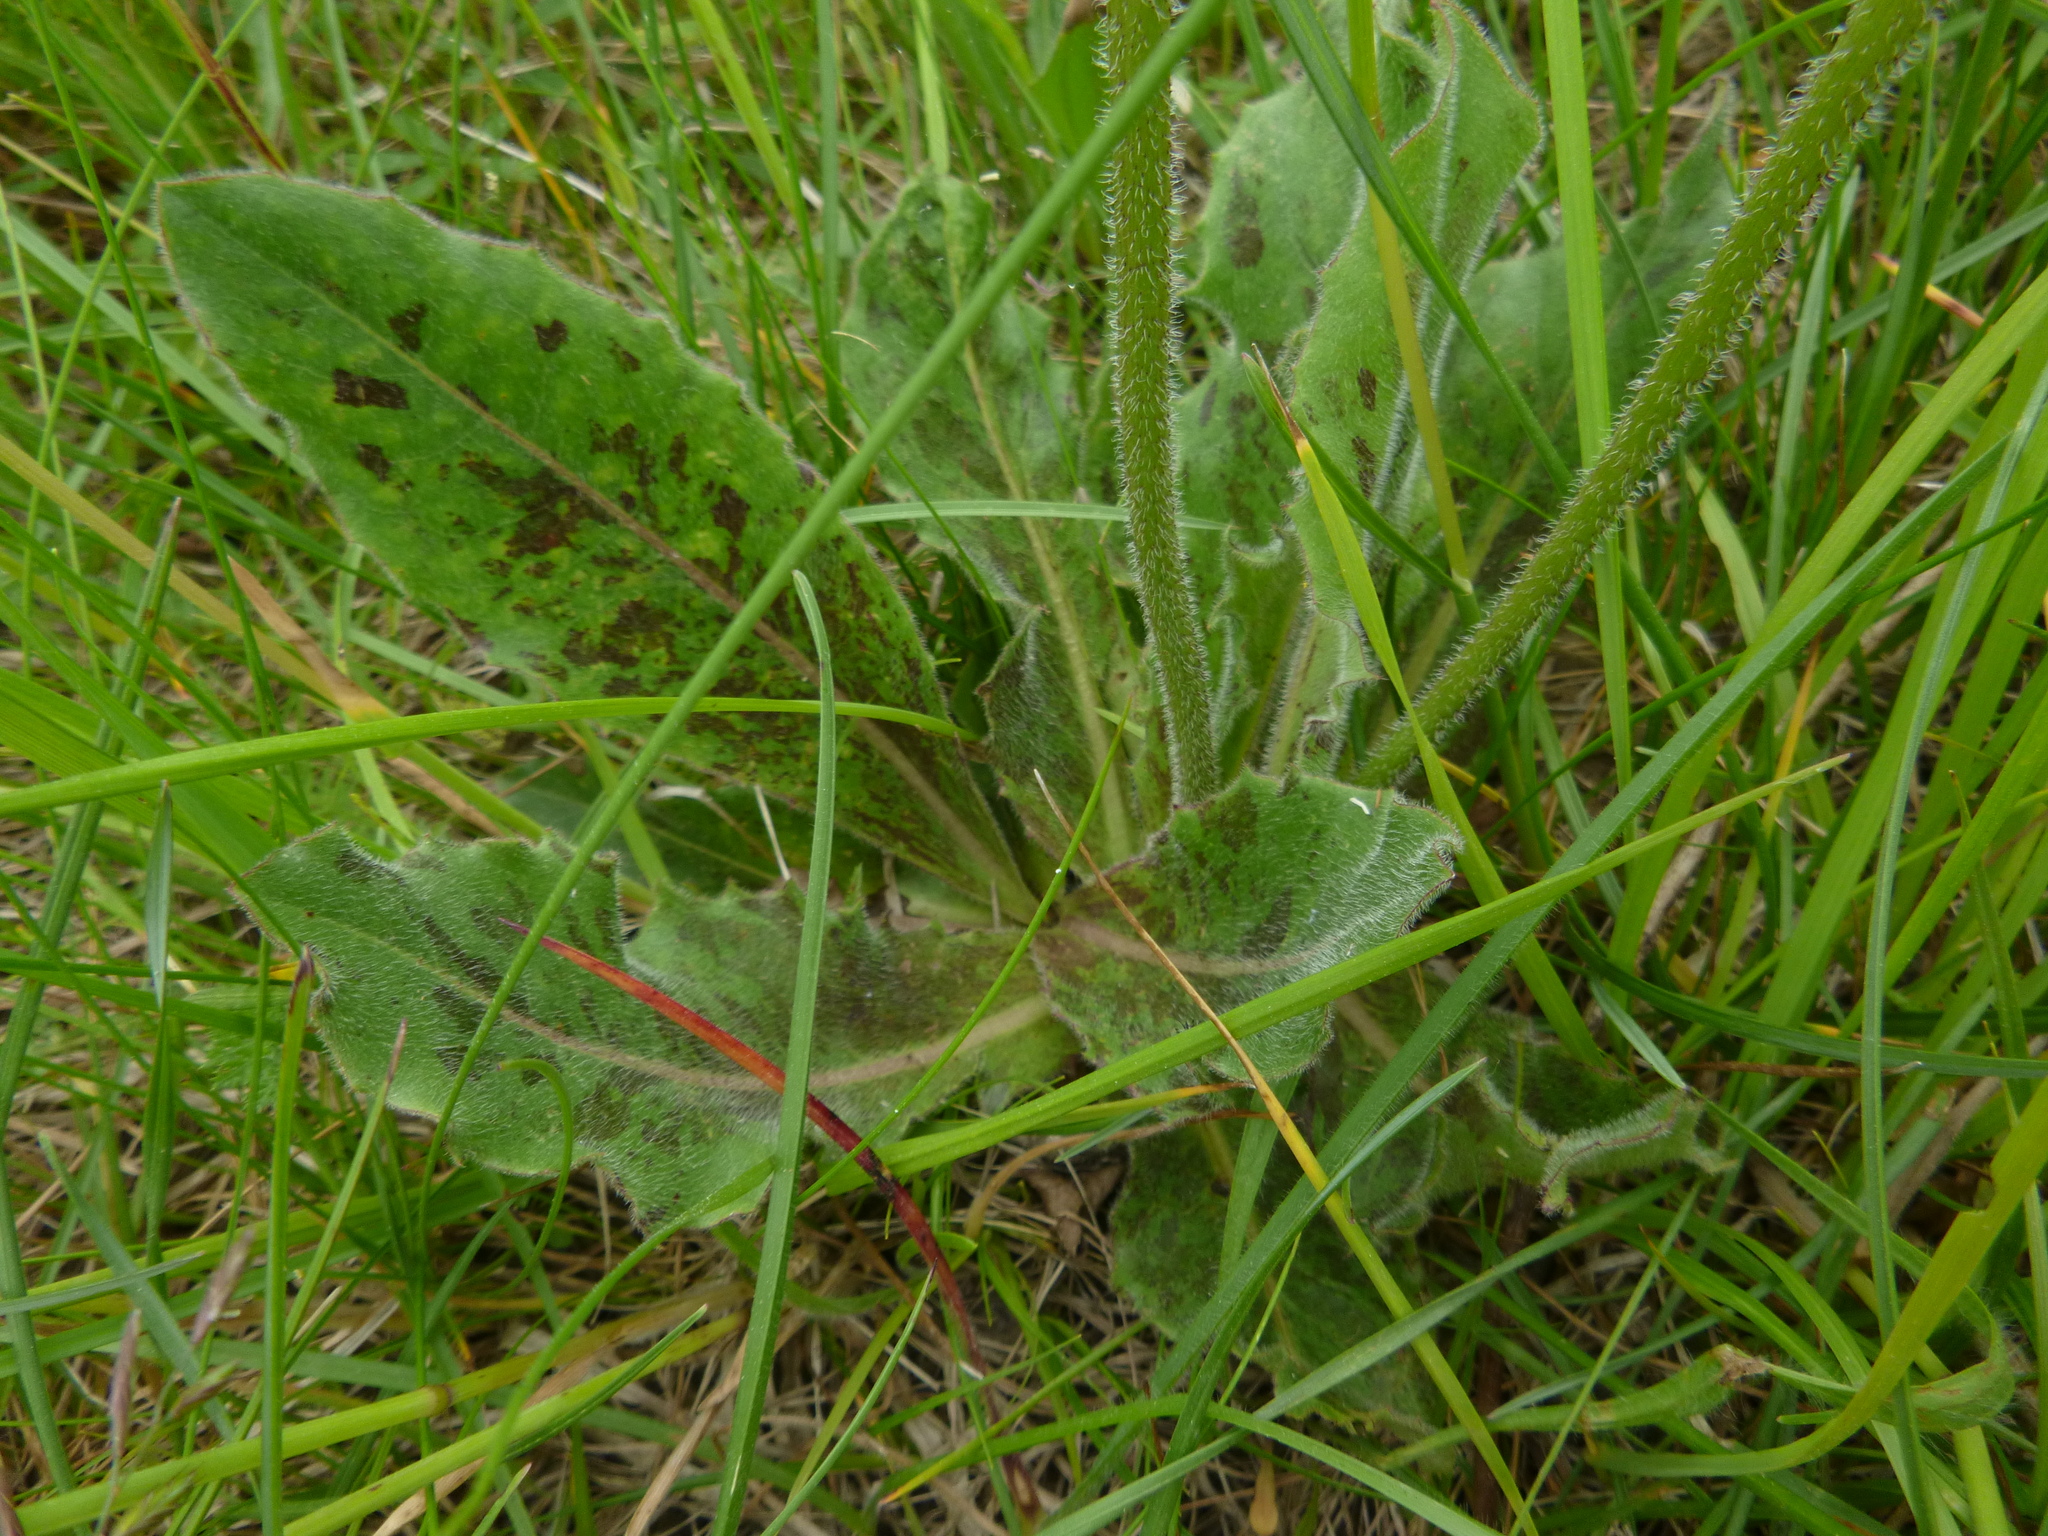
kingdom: Plantae
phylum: Tracheophyta
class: Magnoliopsida
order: Asterales
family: Asteraceae
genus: Trommsdorffia
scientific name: Trommsdorffia maculata
